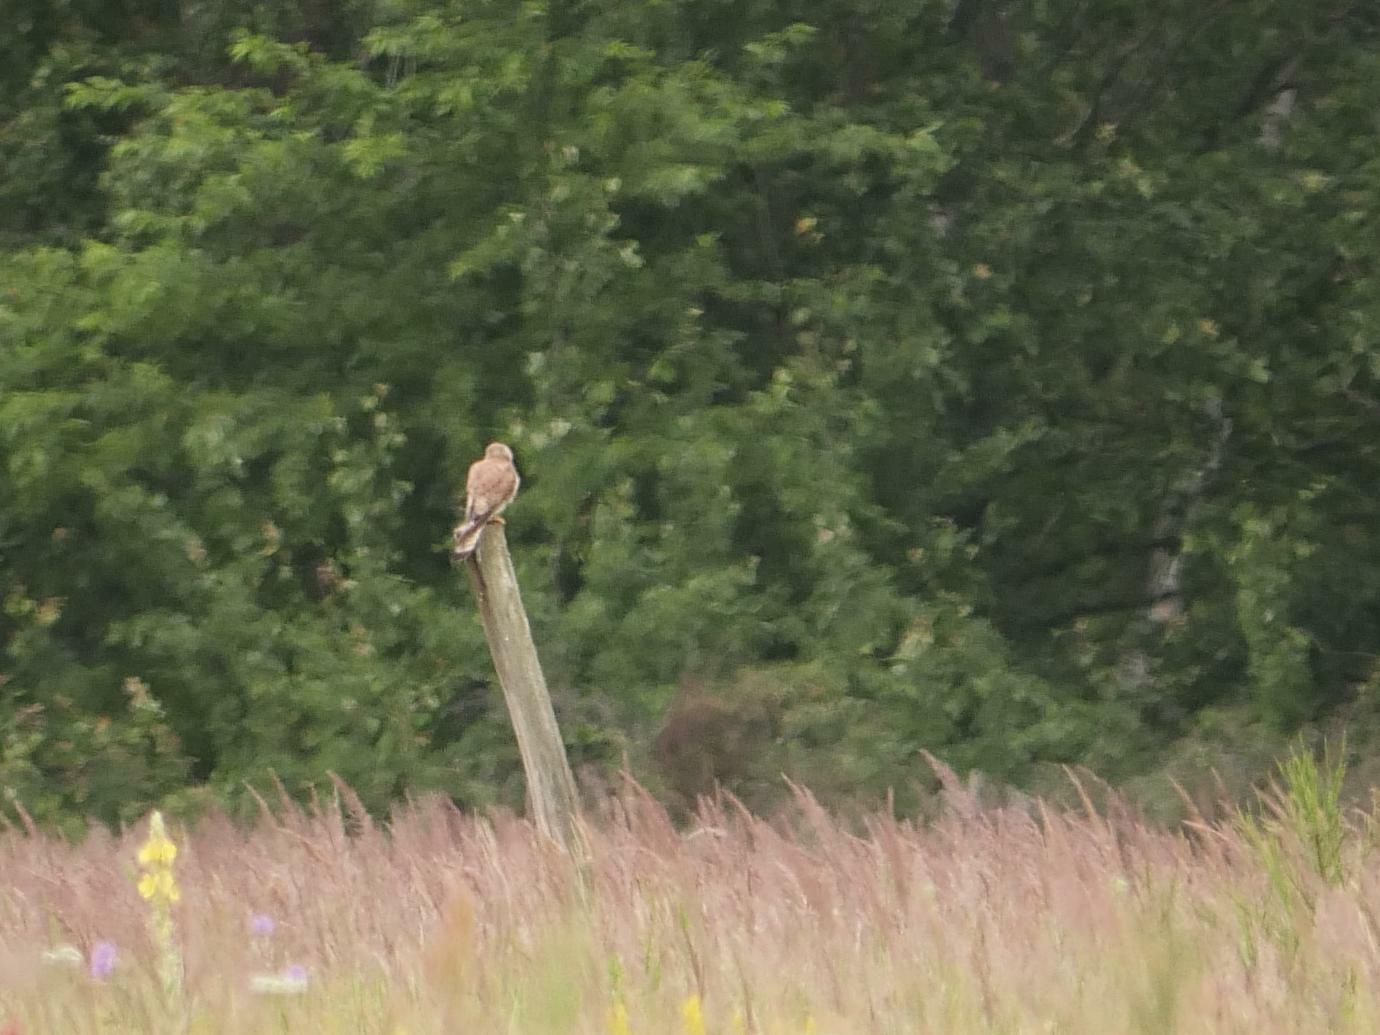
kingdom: Animalia
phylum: Chordata
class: Aves
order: Falconiformes
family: Falconidae
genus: Falco
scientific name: Falco tinnunculus
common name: Common kestrel
